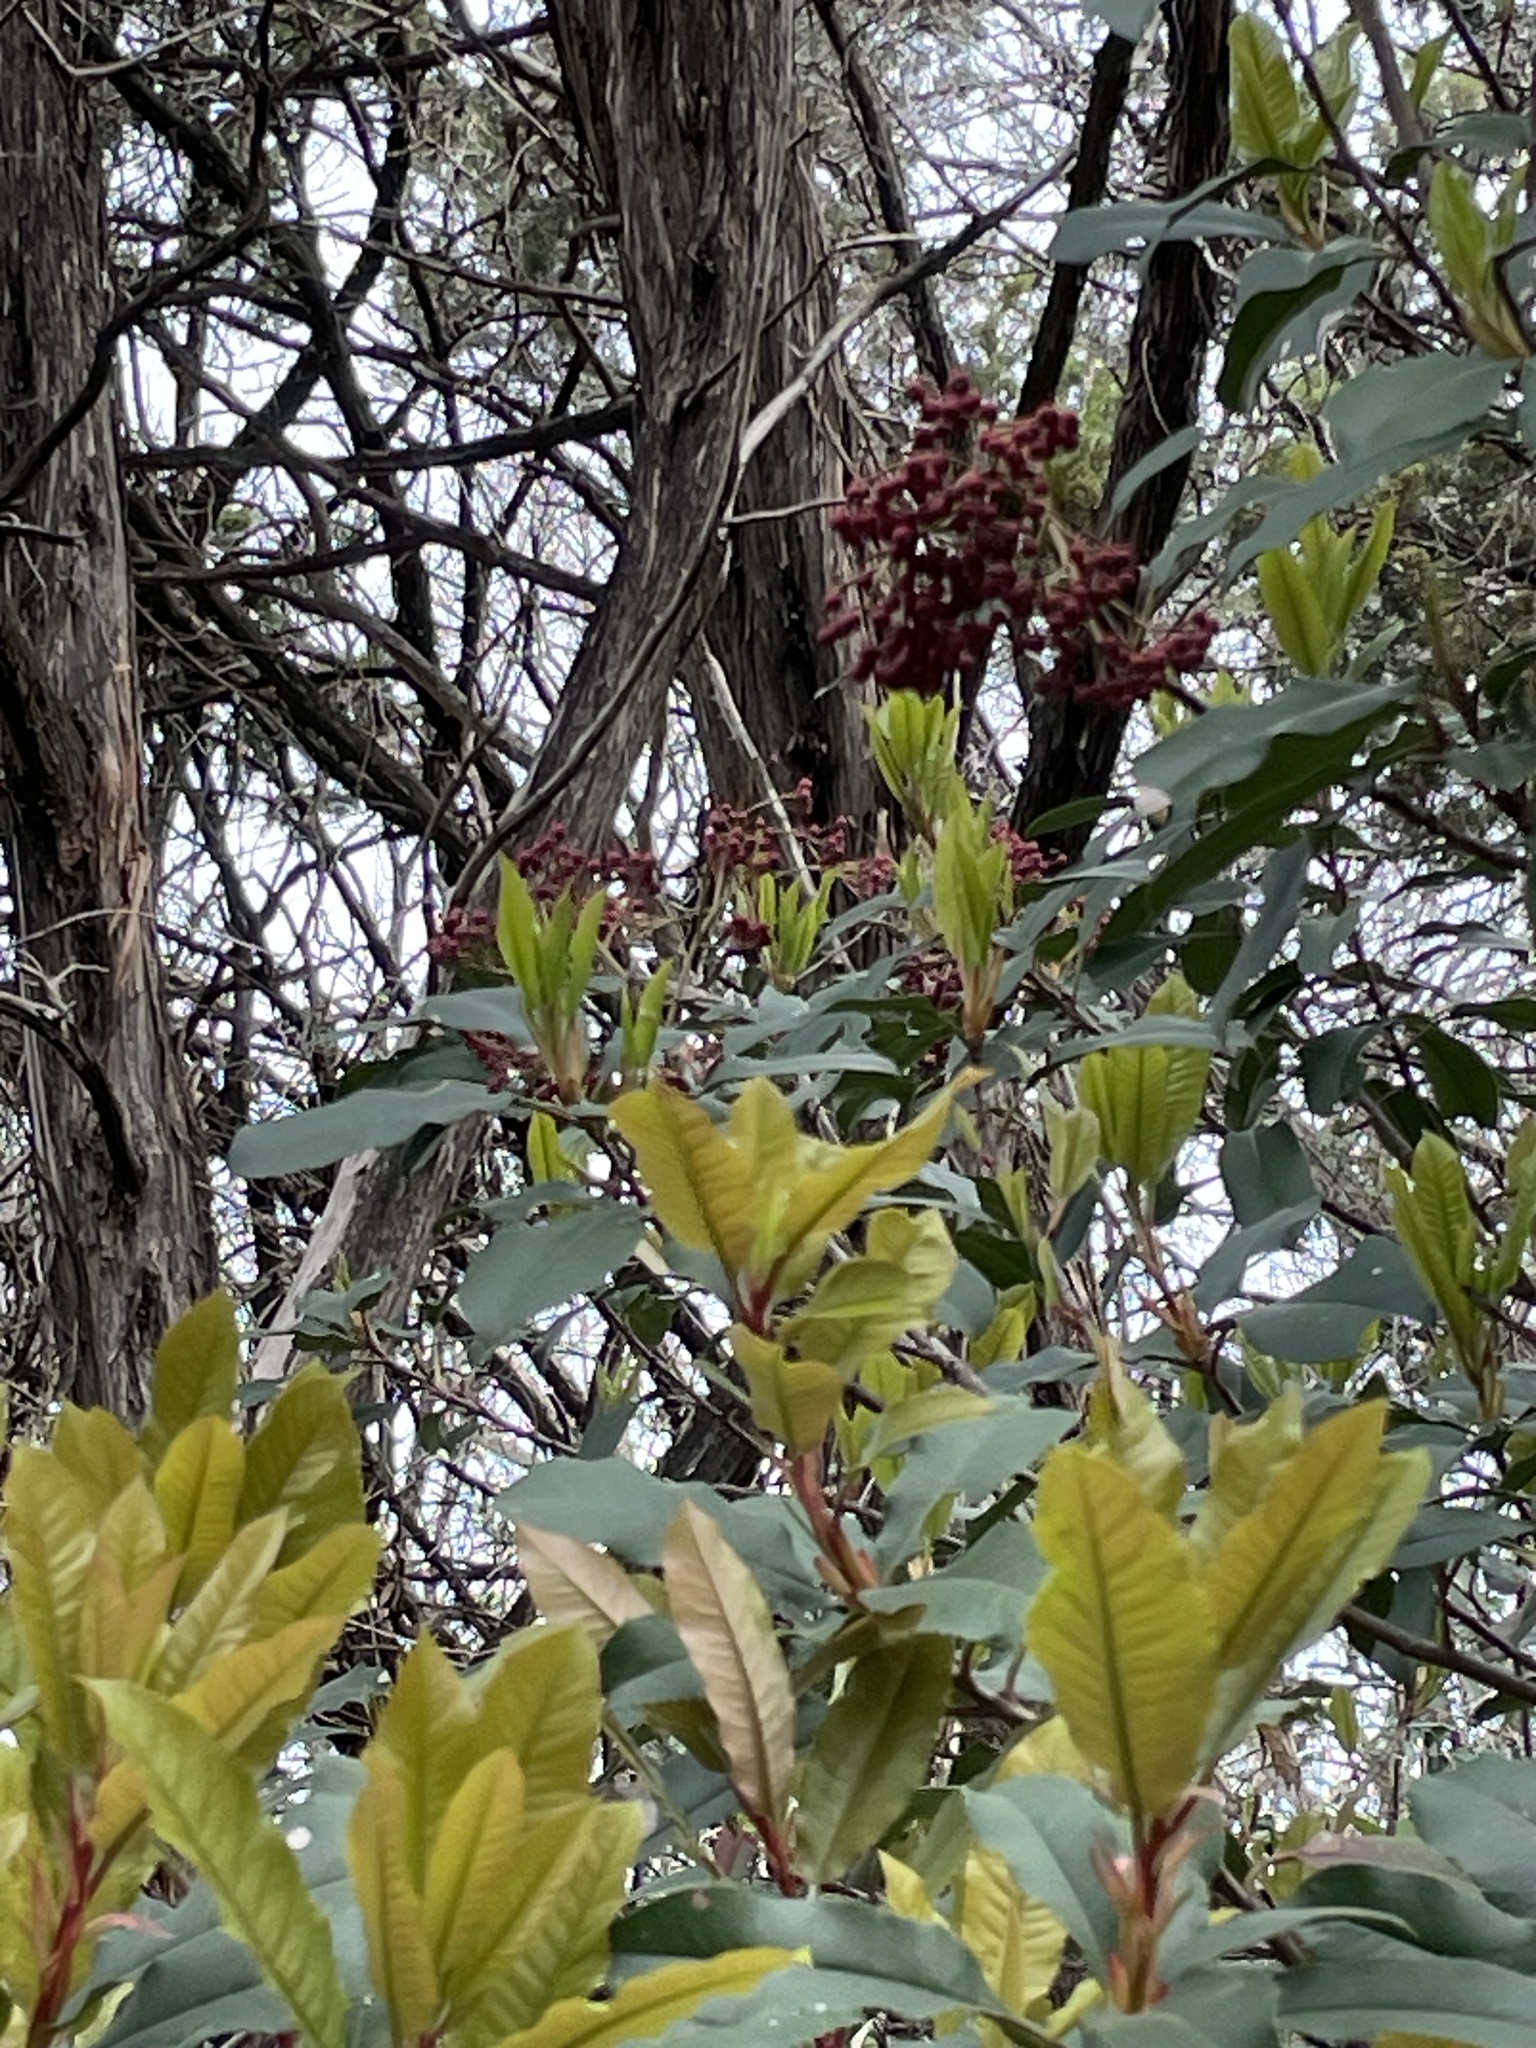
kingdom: Plantae
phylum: Tracheophyta
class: Magnoliopsida
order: Rosales
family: Rosaceae
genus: Photinia
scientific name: Photinia serratifolia
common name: Taiwanese photinia
